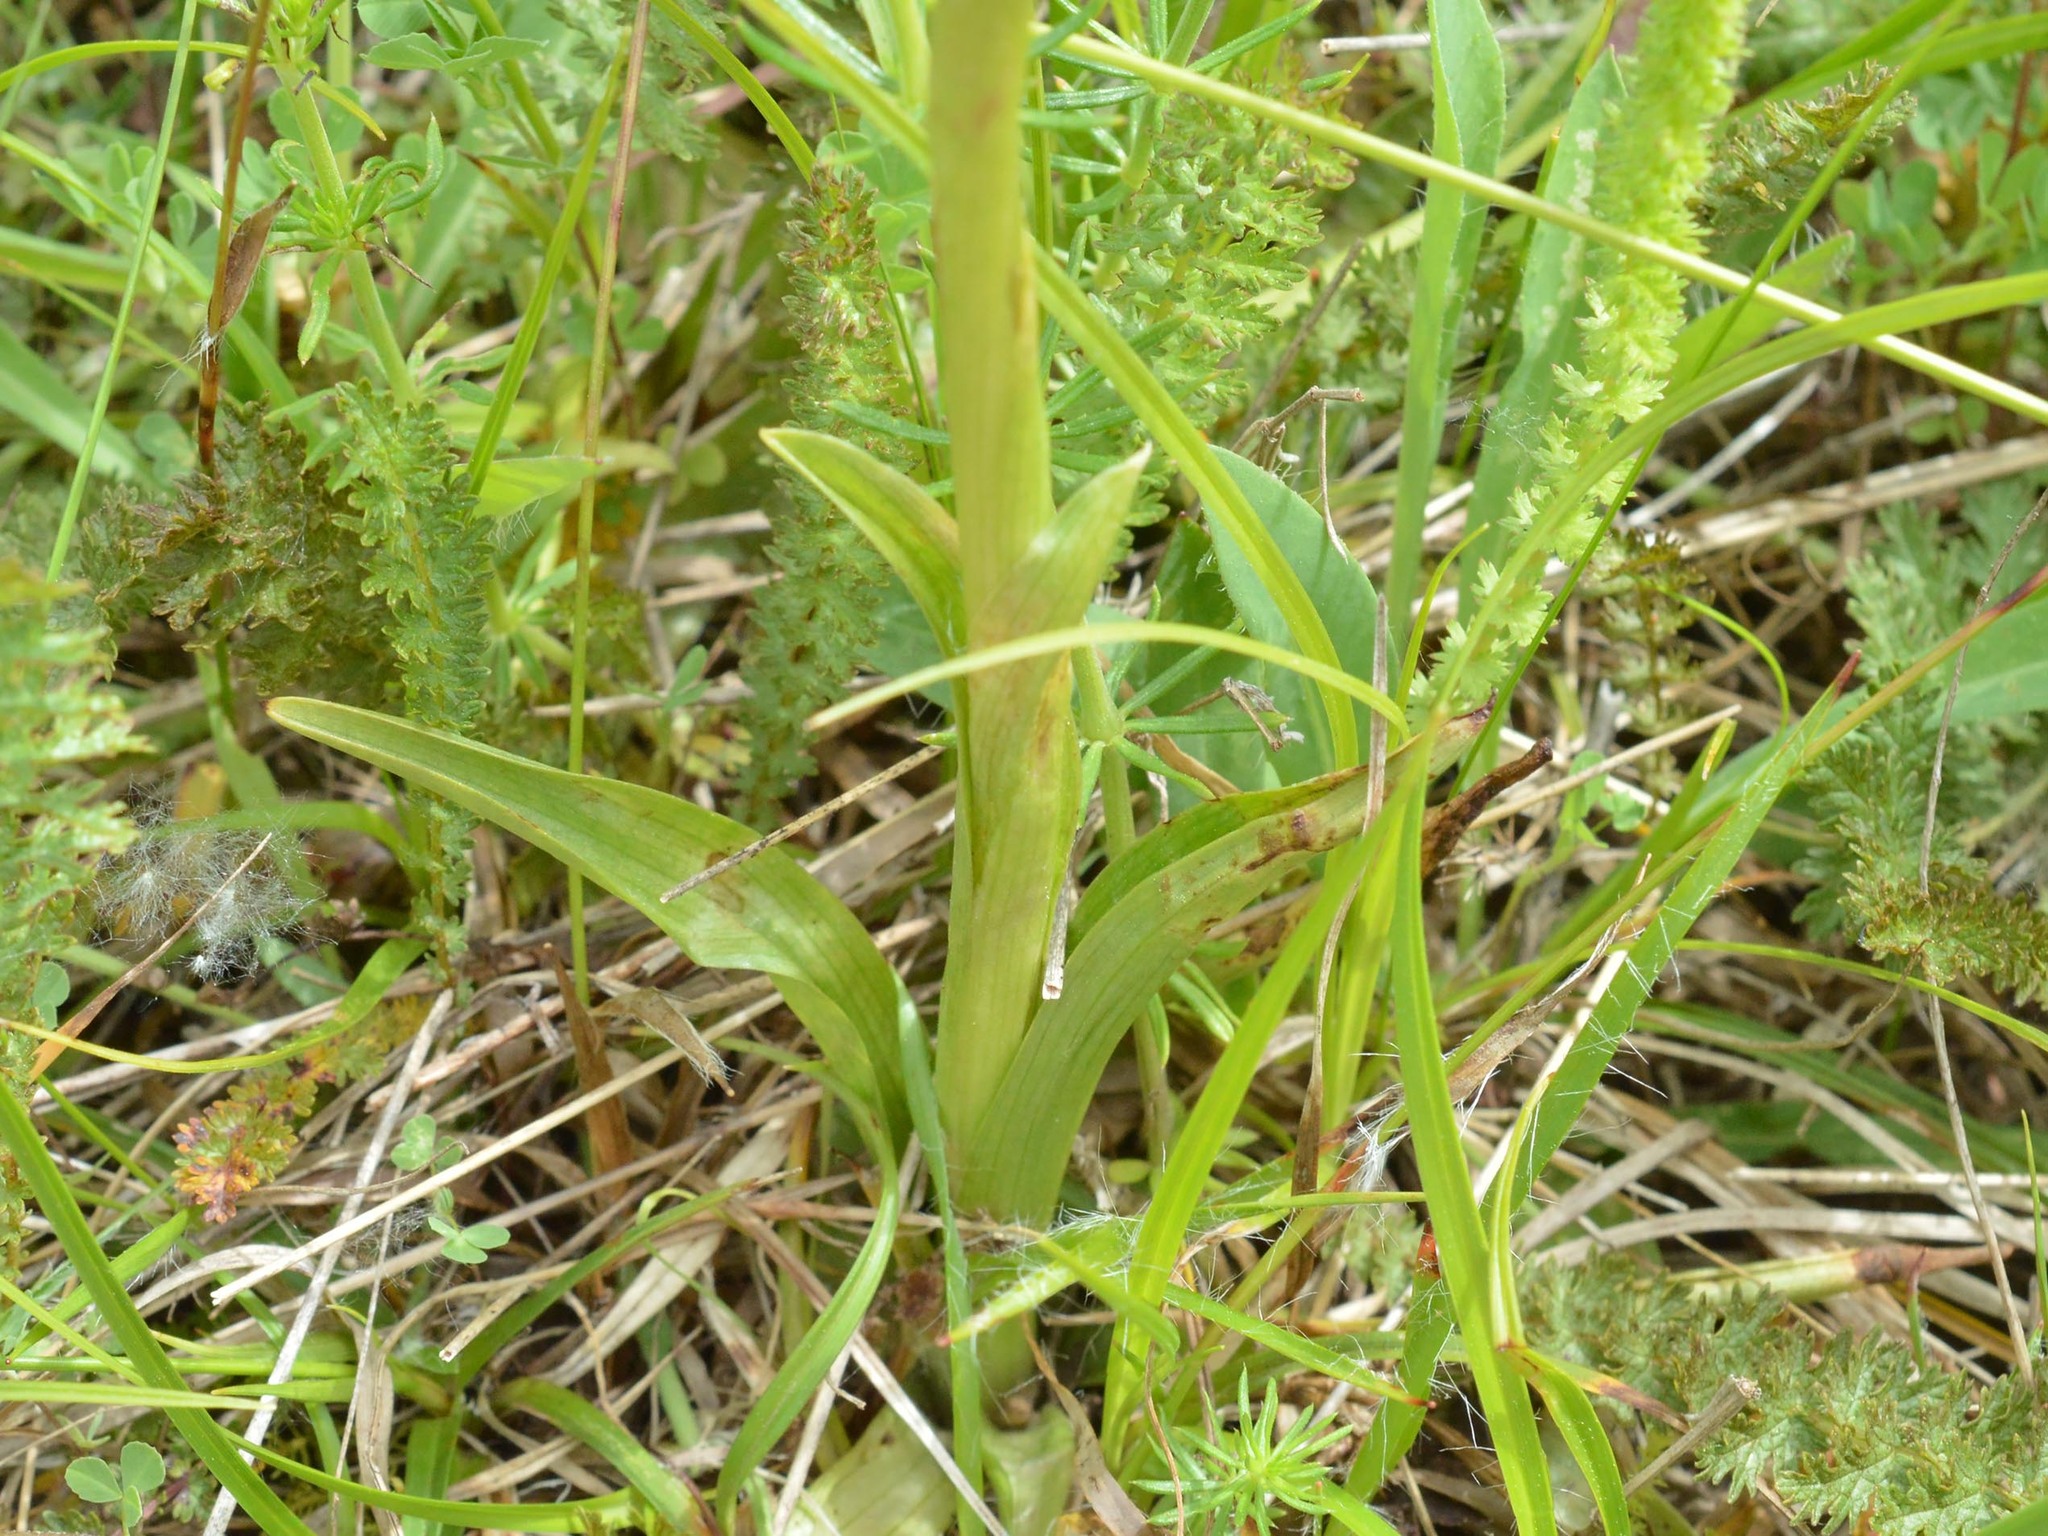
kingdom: Plantae
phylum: Tracheophyta
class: Liliopsida
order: Asparagales
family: Orchidaceae
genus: Anacamptis
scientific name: Anacamptis morio
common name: Green-winged orchid
